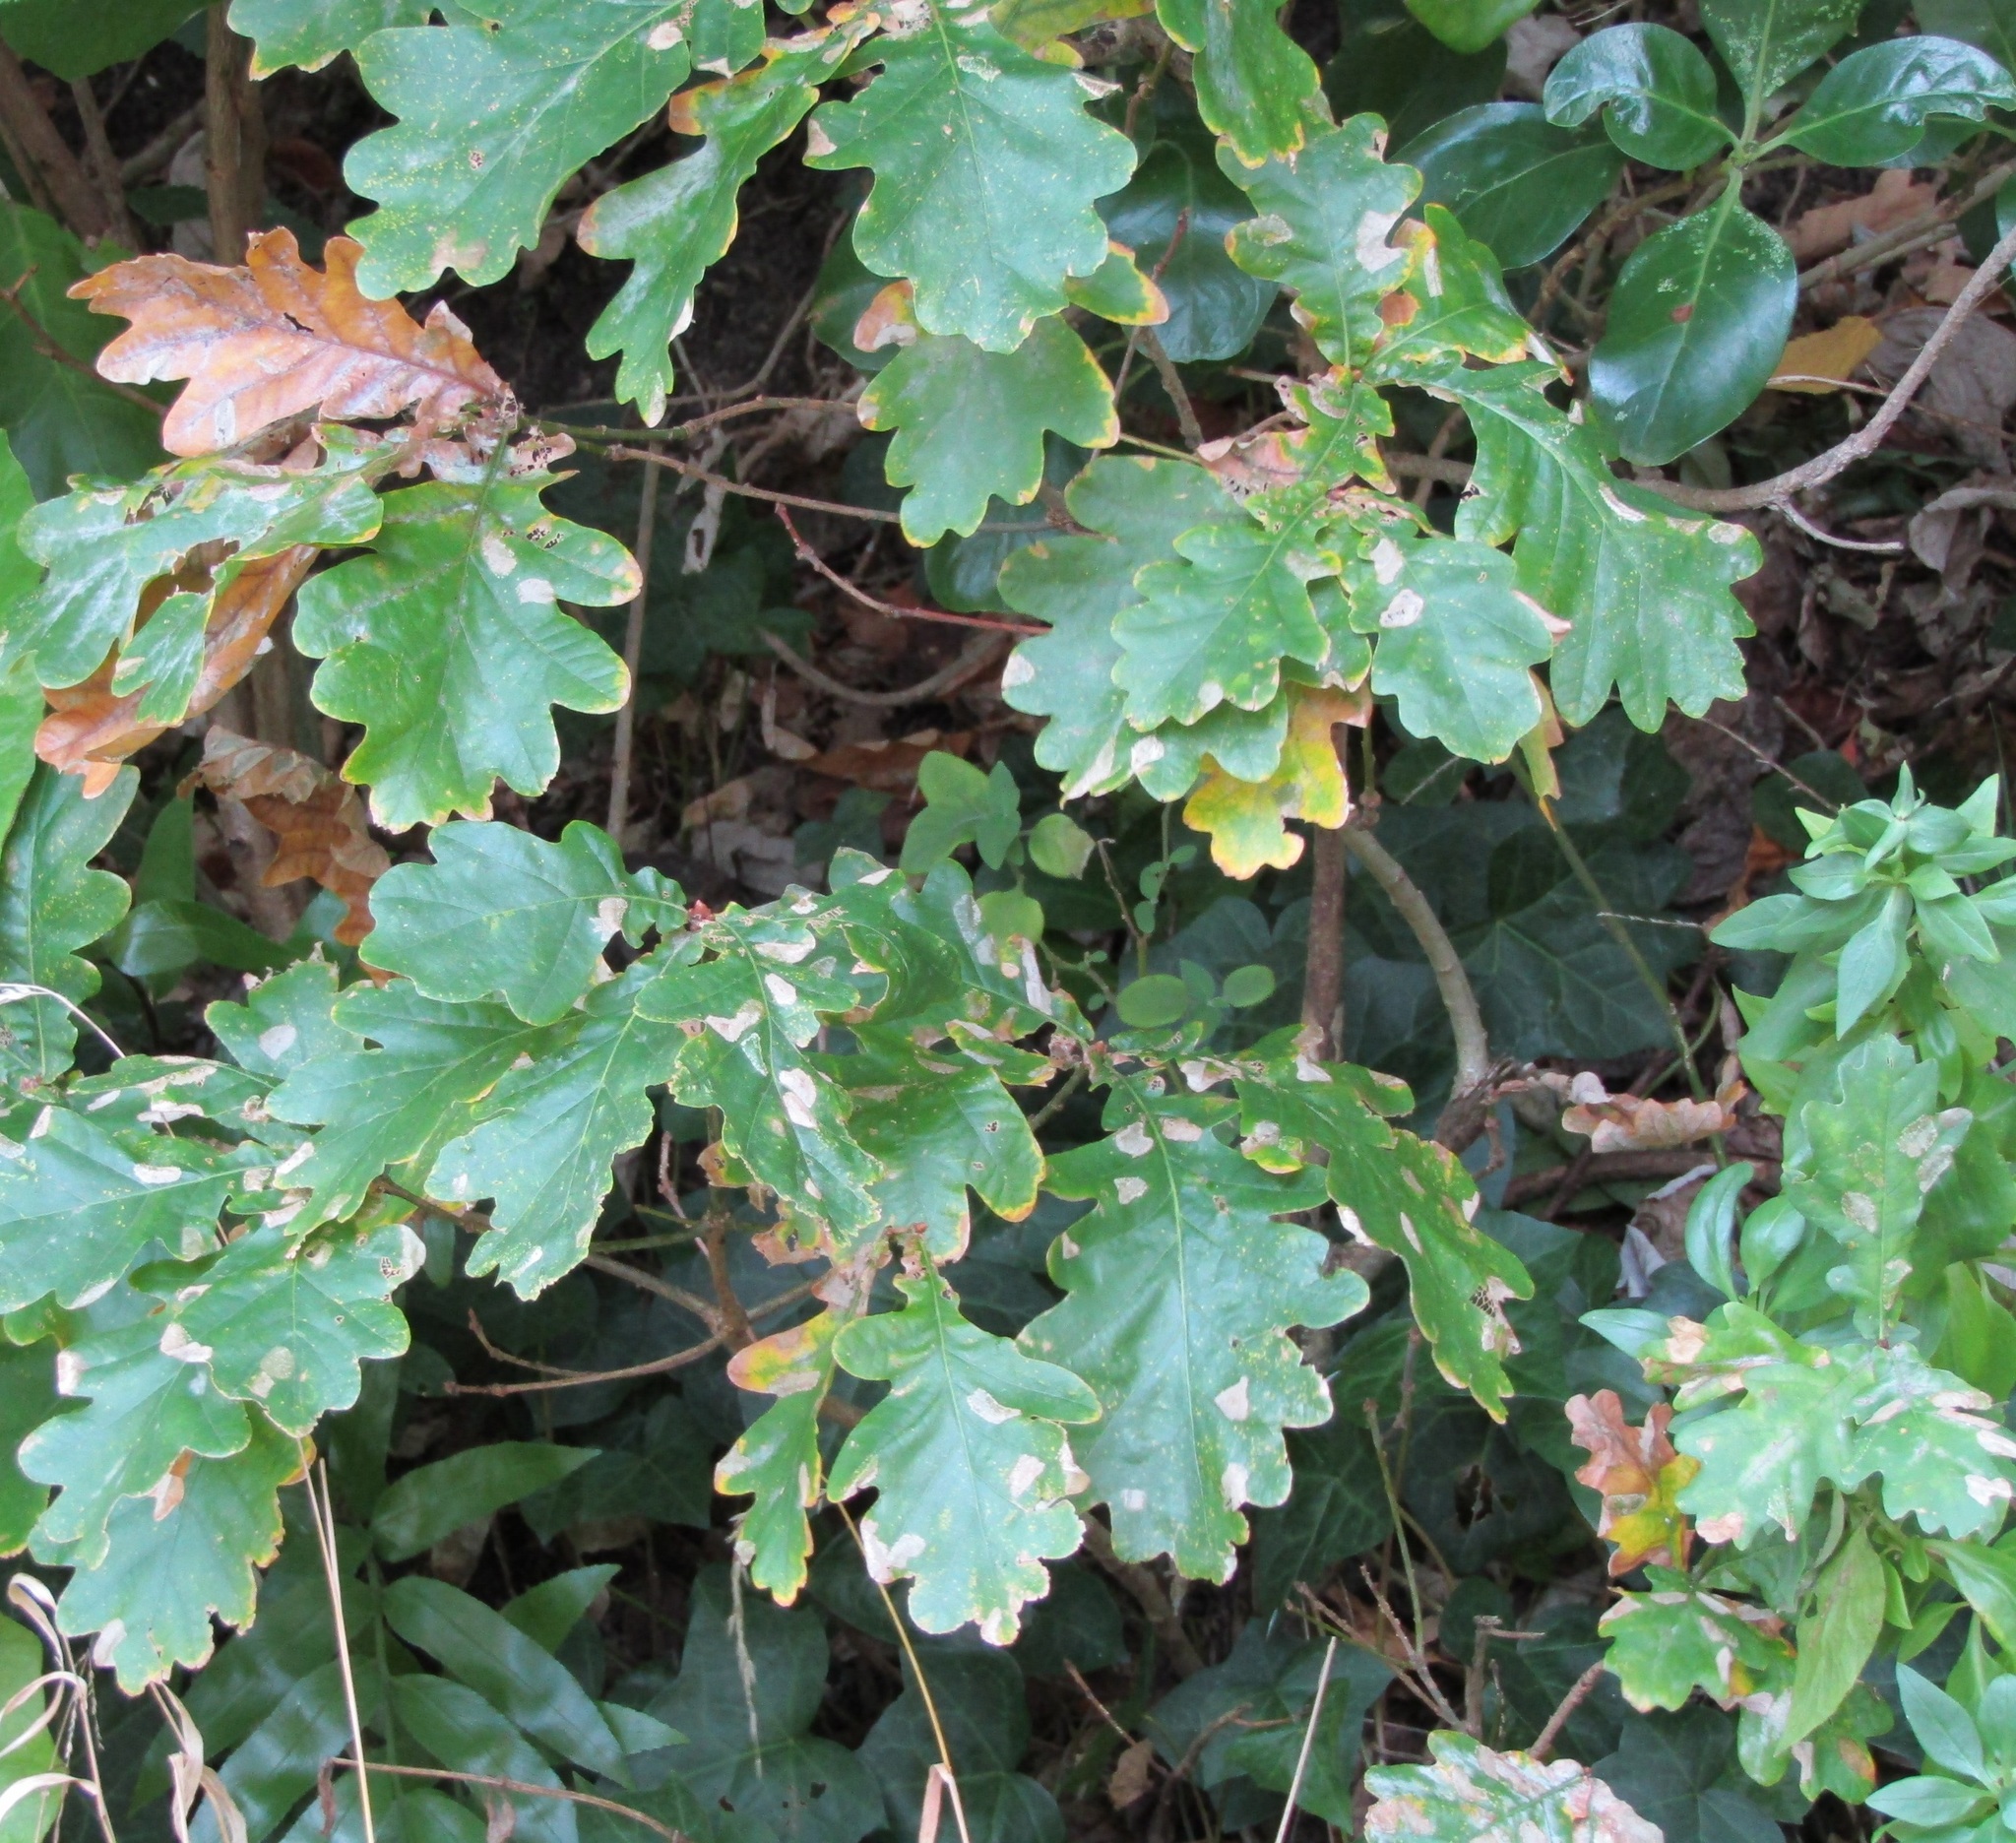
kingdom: Plantae
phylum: Tracheophyta
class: Magnoliopsida
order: Fagales
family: Fagaceae
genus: Quercus
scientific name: Quercus robur
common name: Pedunculate oak
